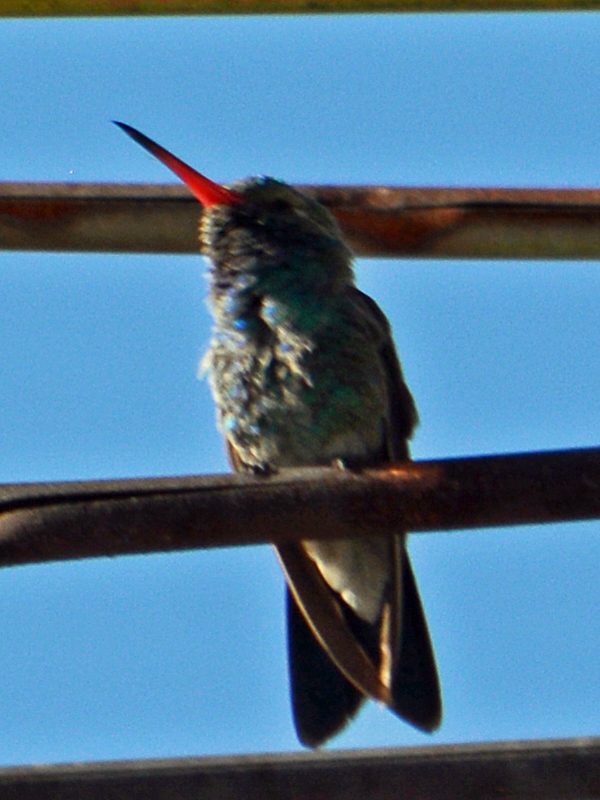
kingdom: Animalia
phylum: Chordata
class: Aves
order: Apodiformes
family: Trochilidae
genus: Cynanthus
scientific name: Cynanthus latirostris
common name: Broad-billed hummingbird
